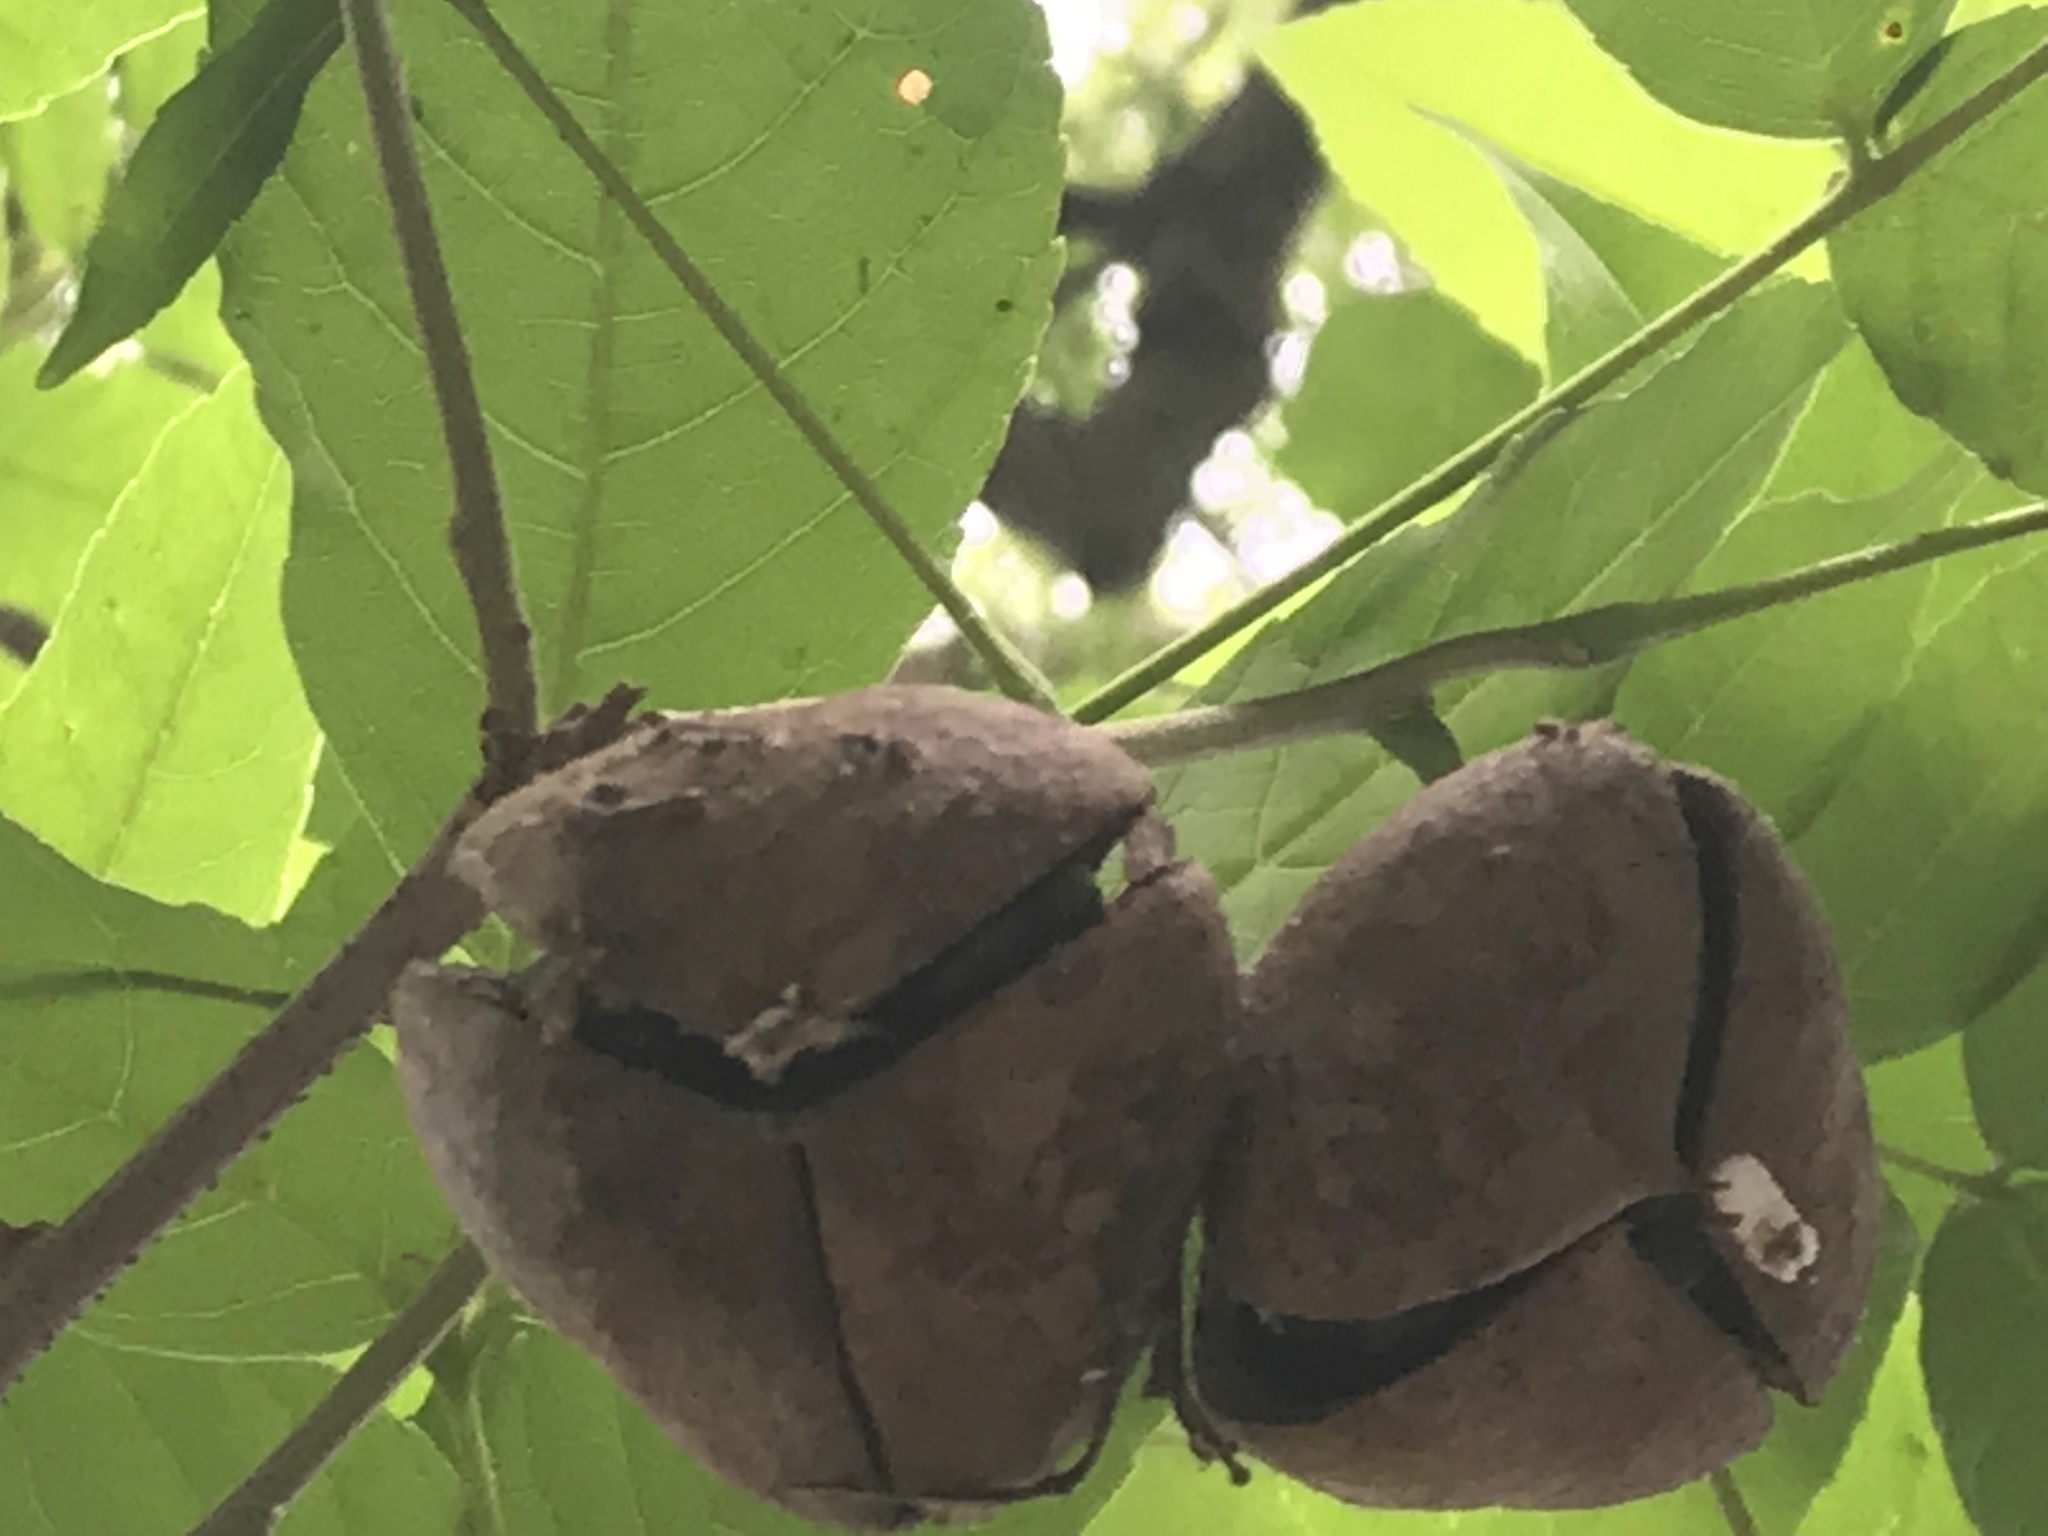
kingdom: Plantae
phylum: Tracheophyta
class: Magnoliopsida
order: Sapindales
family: Sapindaceae
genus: Ungnadia
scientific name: Ungnadia speciosa
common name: Texas-buckeye
